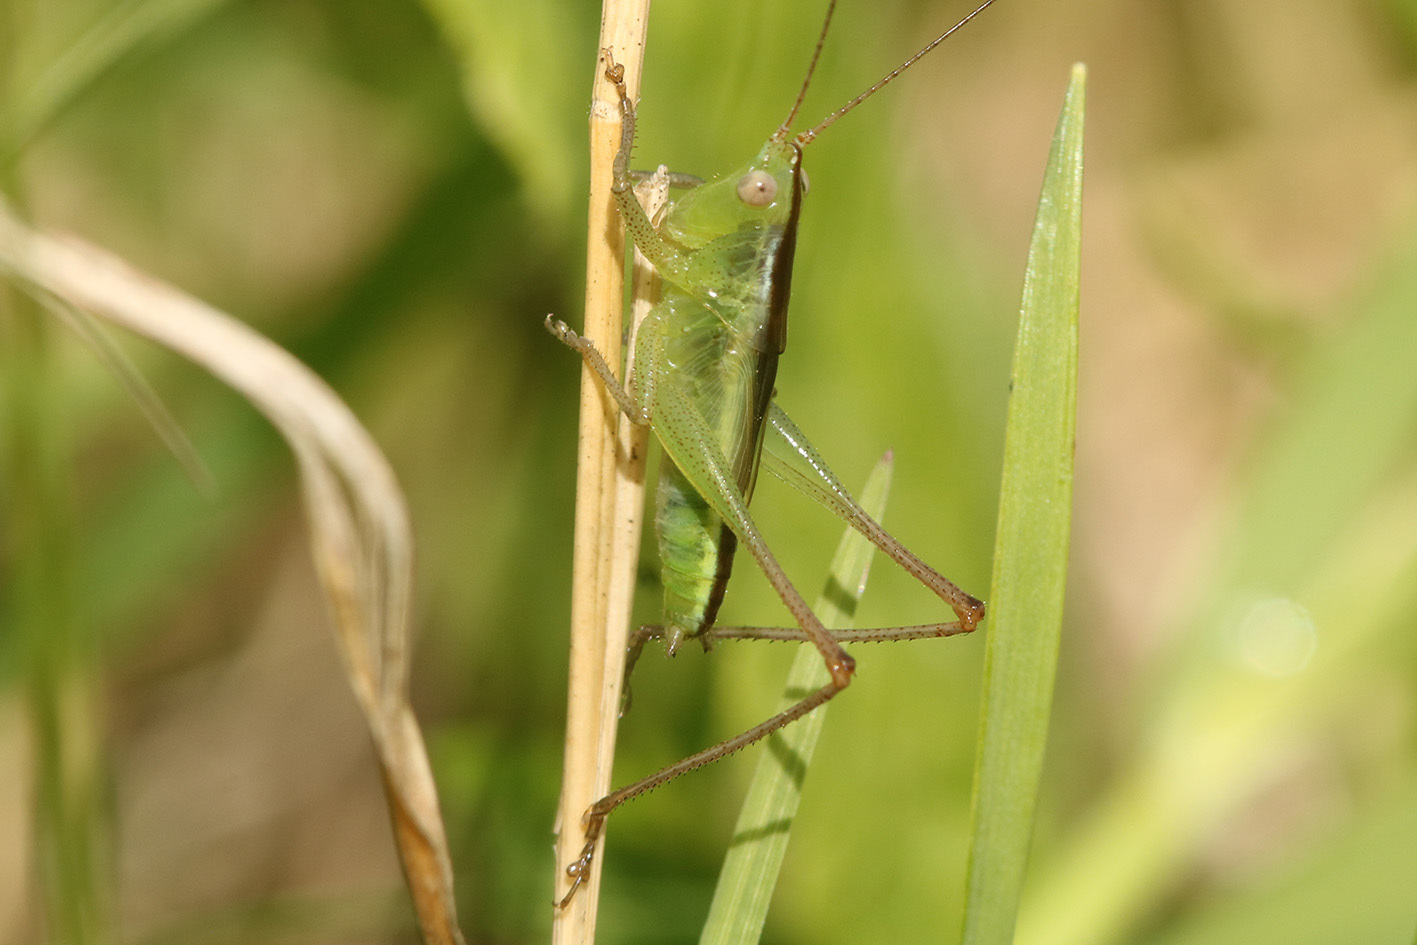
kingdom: Animalia
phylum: Arthropoda
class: Insecta
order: Orthoptera
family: Tettigoniidae
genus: Conocephalus
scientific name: Conocephalus longipes
